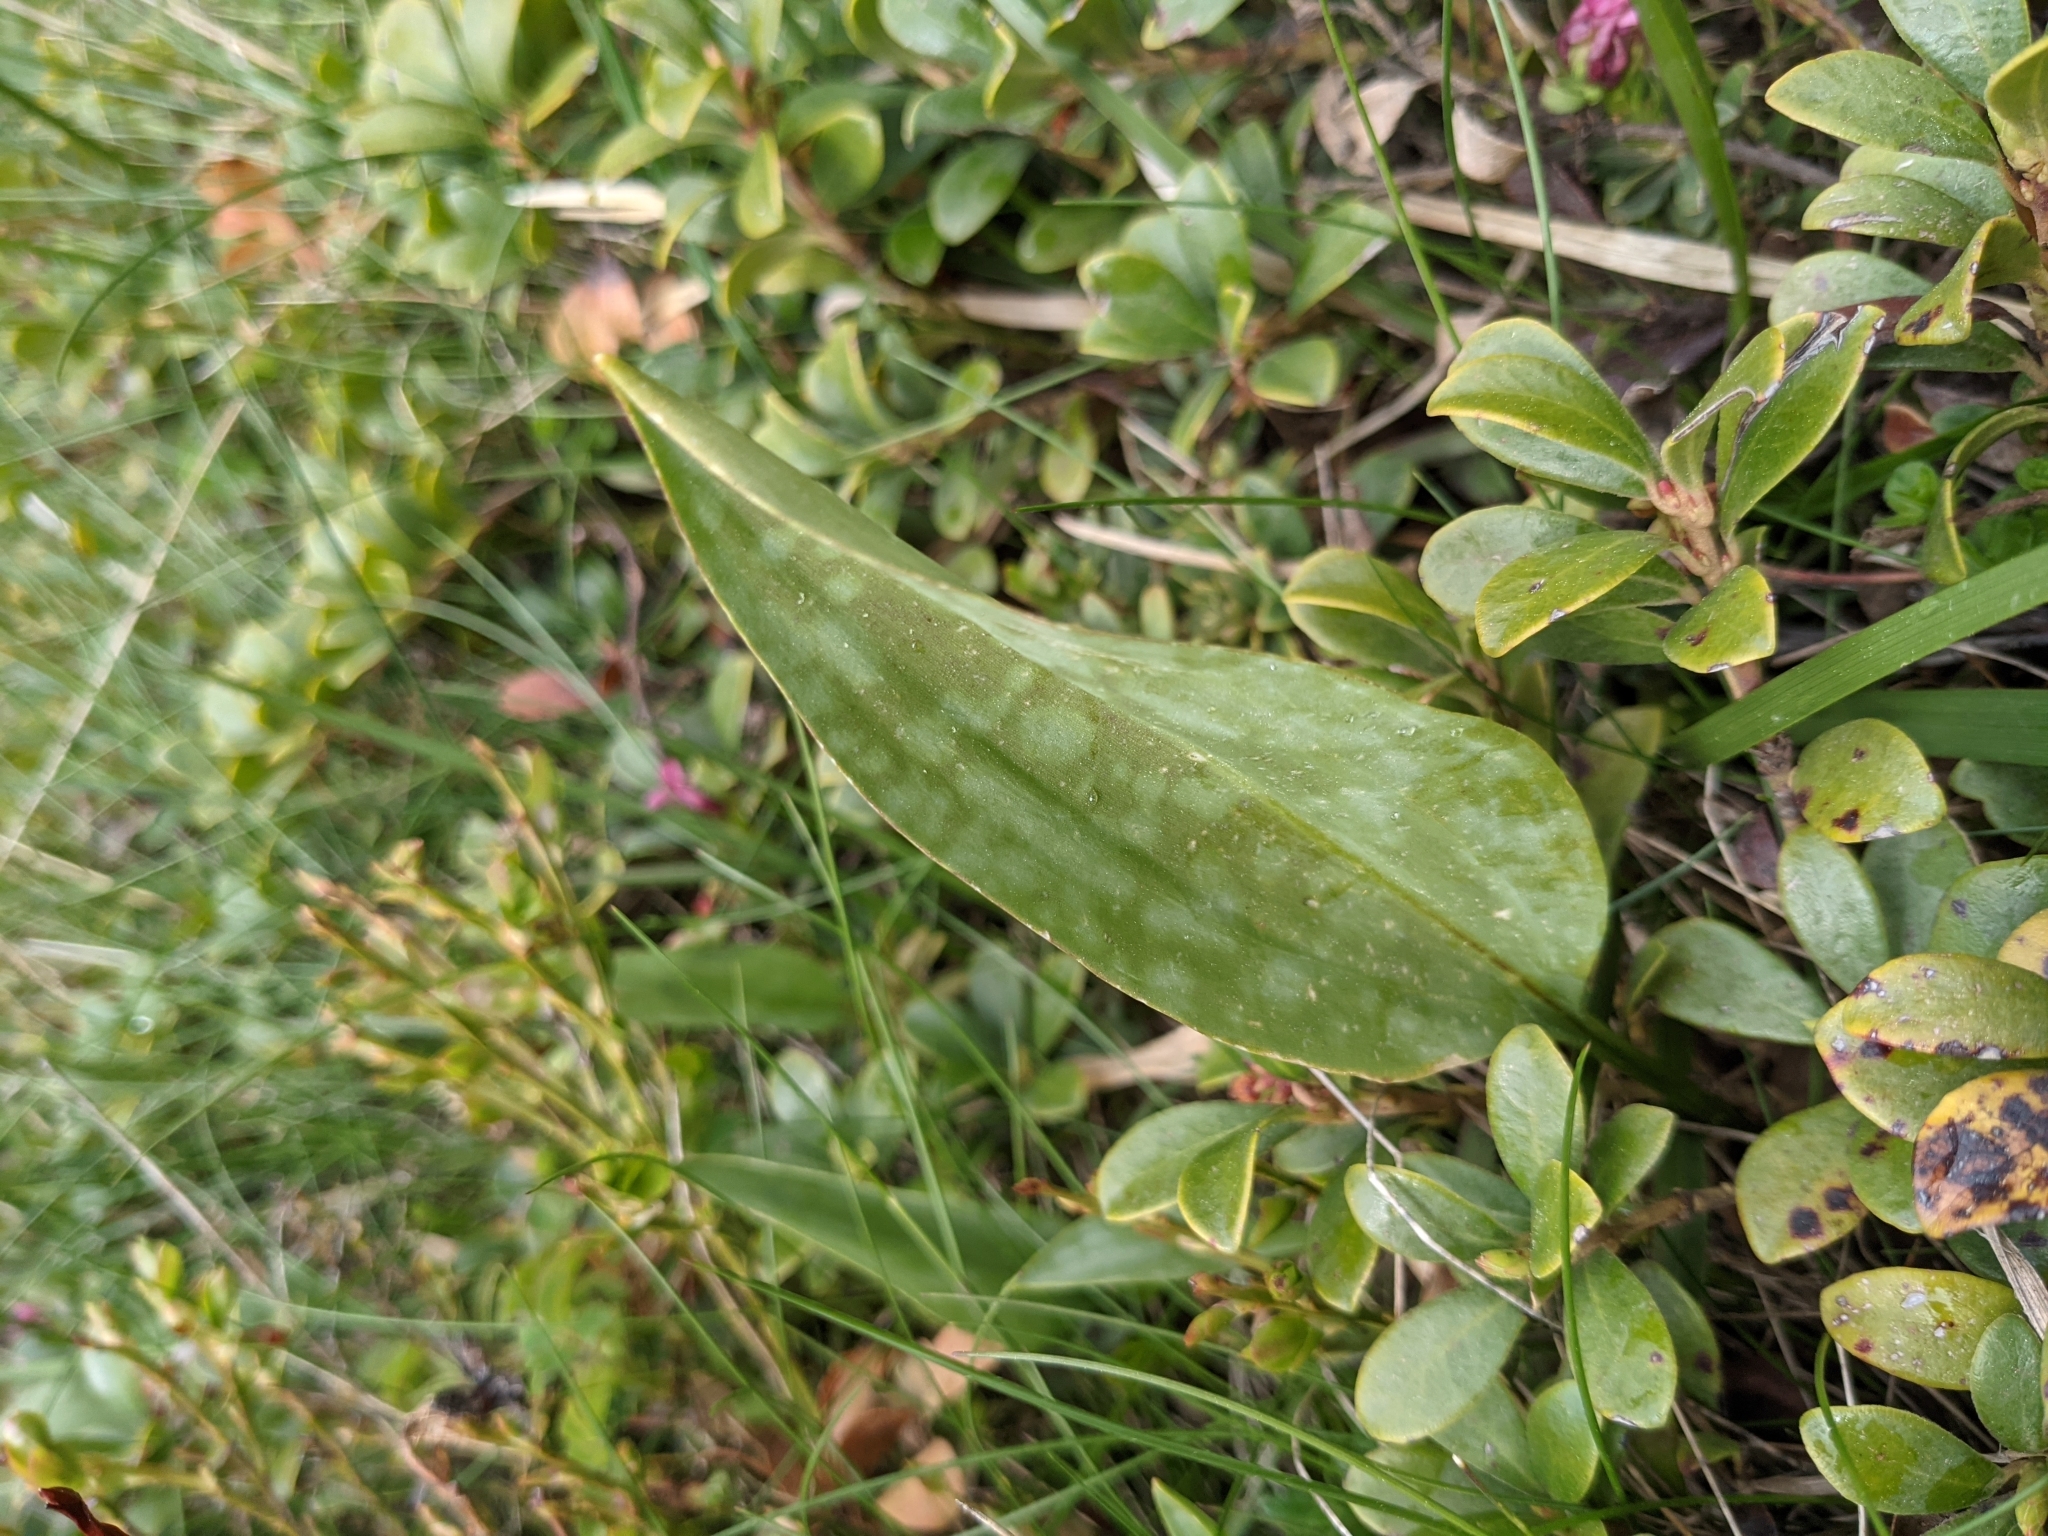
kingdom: Plantae
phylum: Tracheophyta
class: Liliopsida
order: Liliales
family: Liliaceae
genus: Erythronium
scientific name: Erythronium dens-canis
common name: Dog's-tooth-violet
